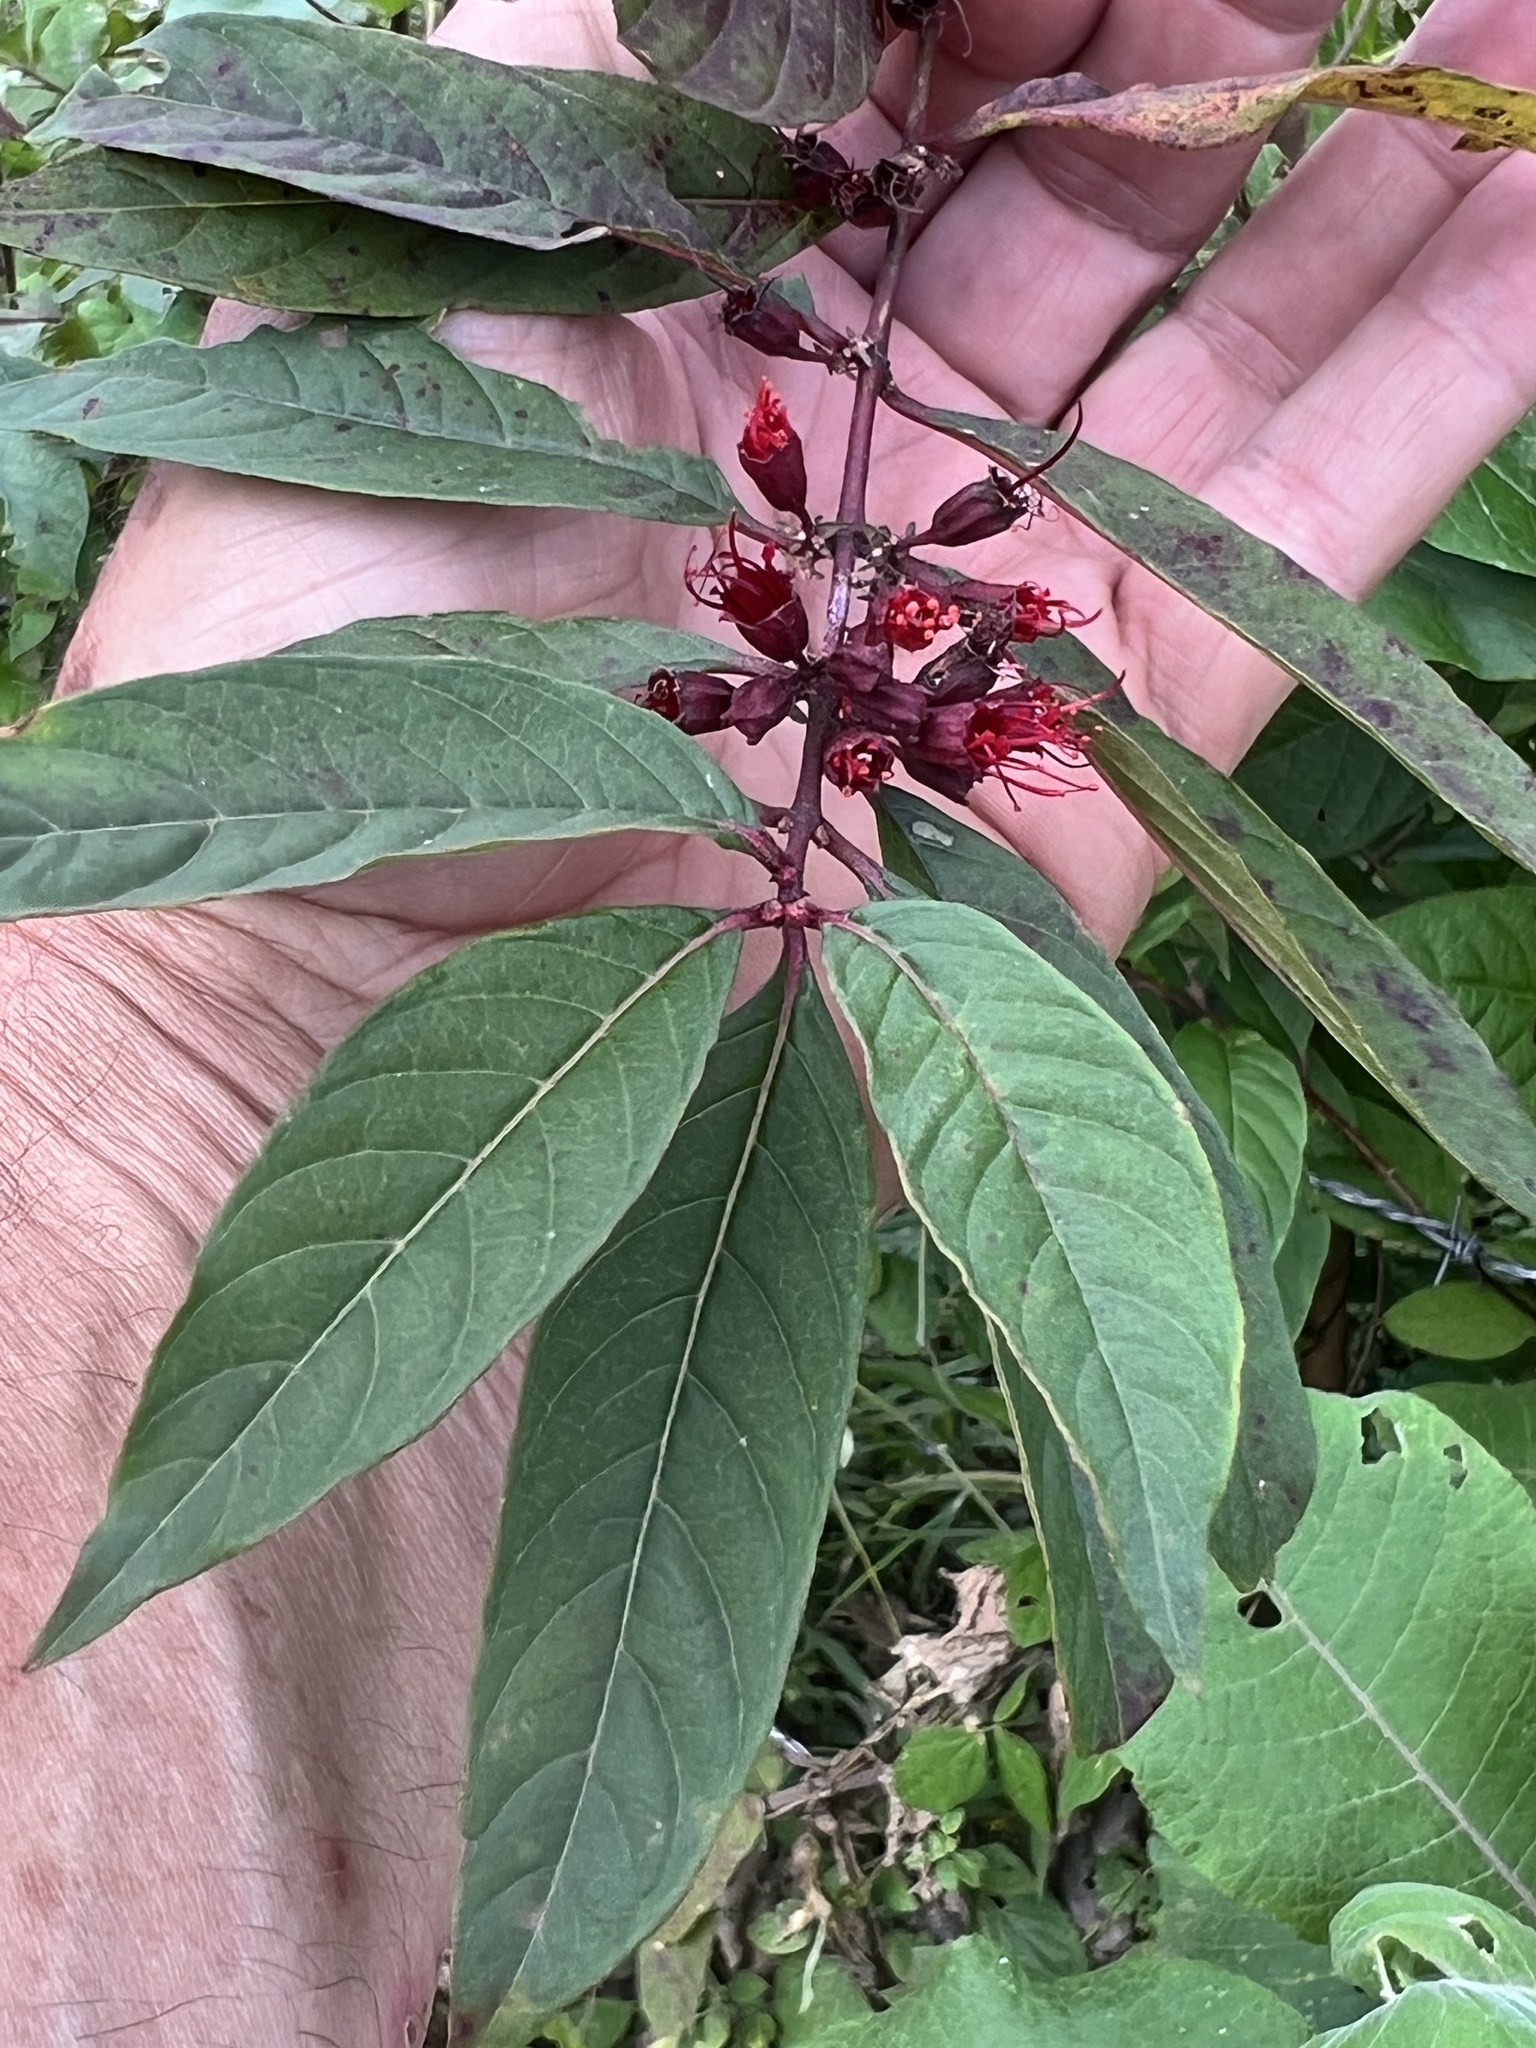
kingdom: Plantae
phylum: Tracheophyta
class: Magnoliopsida
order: Myrtales
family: Lythraceae
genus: Pehria
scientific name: Pehria compacta
